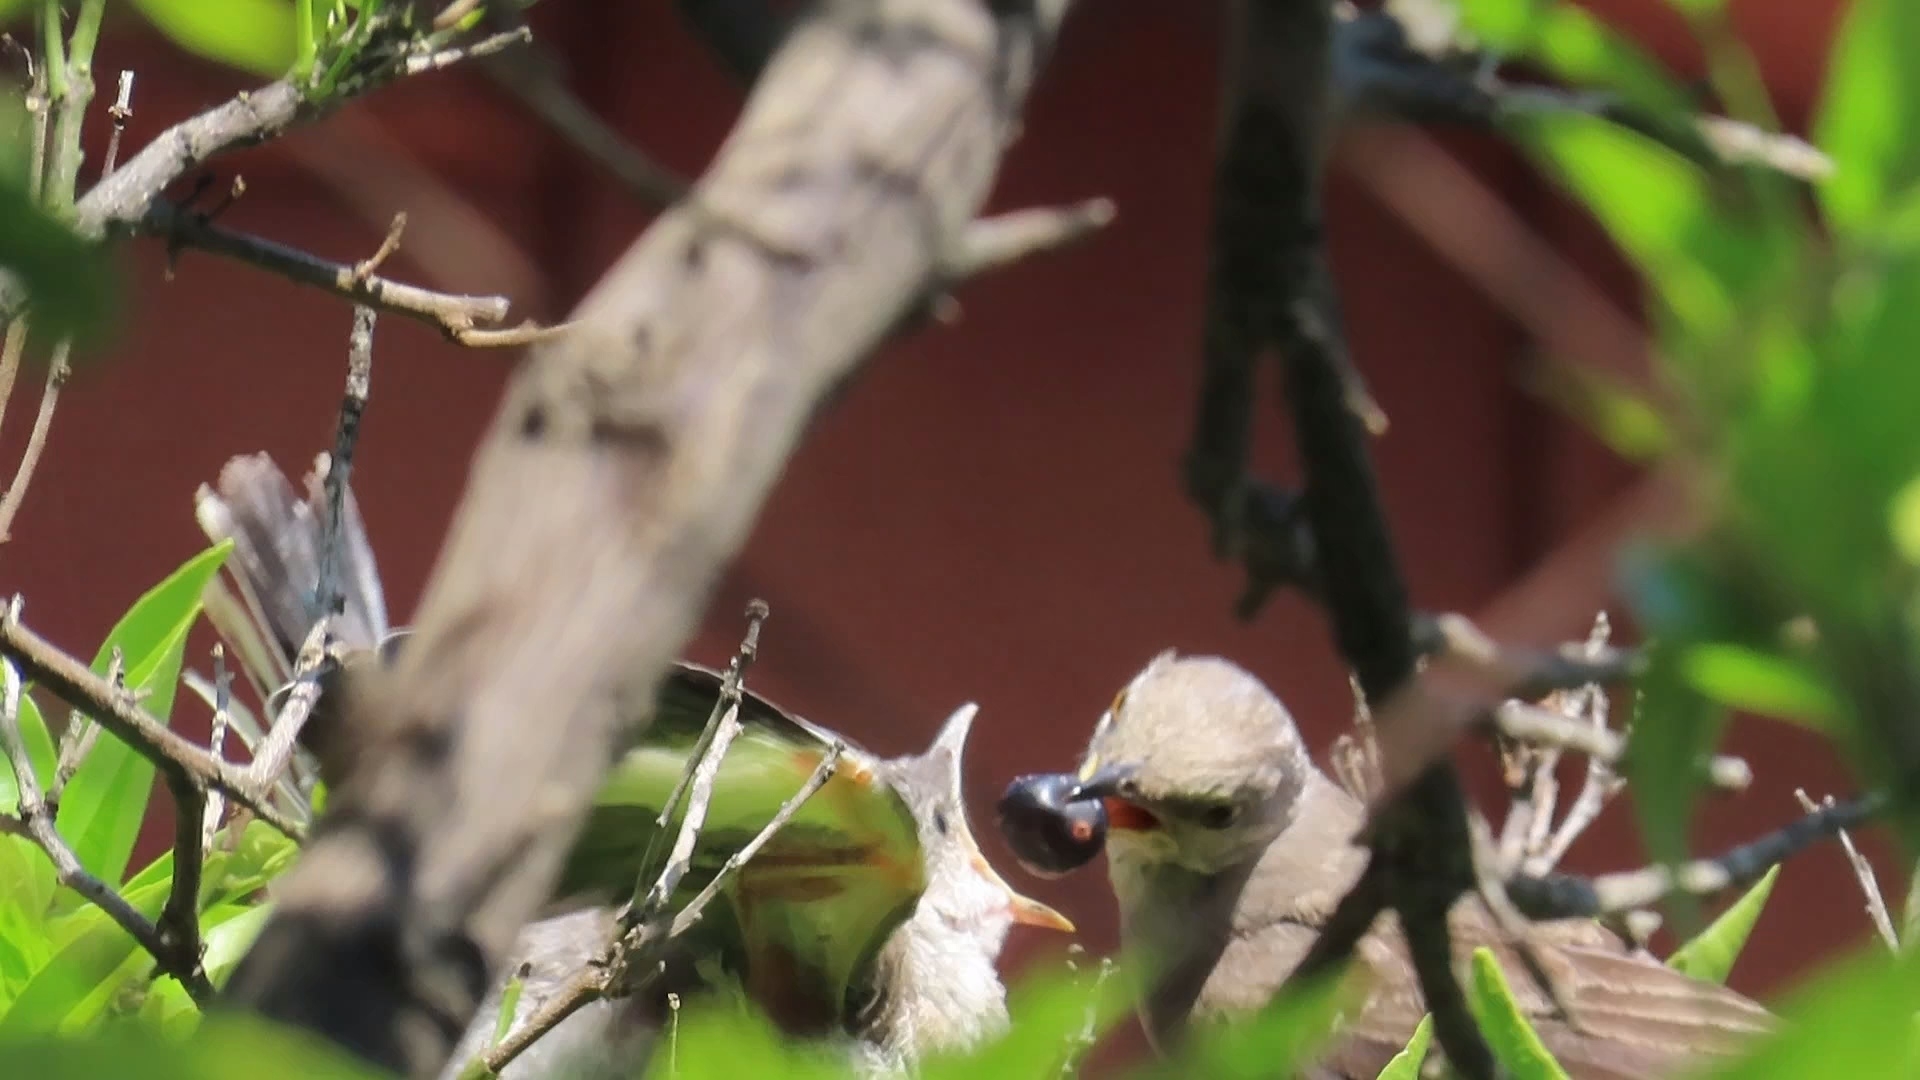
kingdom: Animalia
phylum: Chordata
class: Aves
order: Passeriformes
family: Mimidae
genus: Mimus
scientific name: Mimus polyglottos
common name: Northern mockingbird
